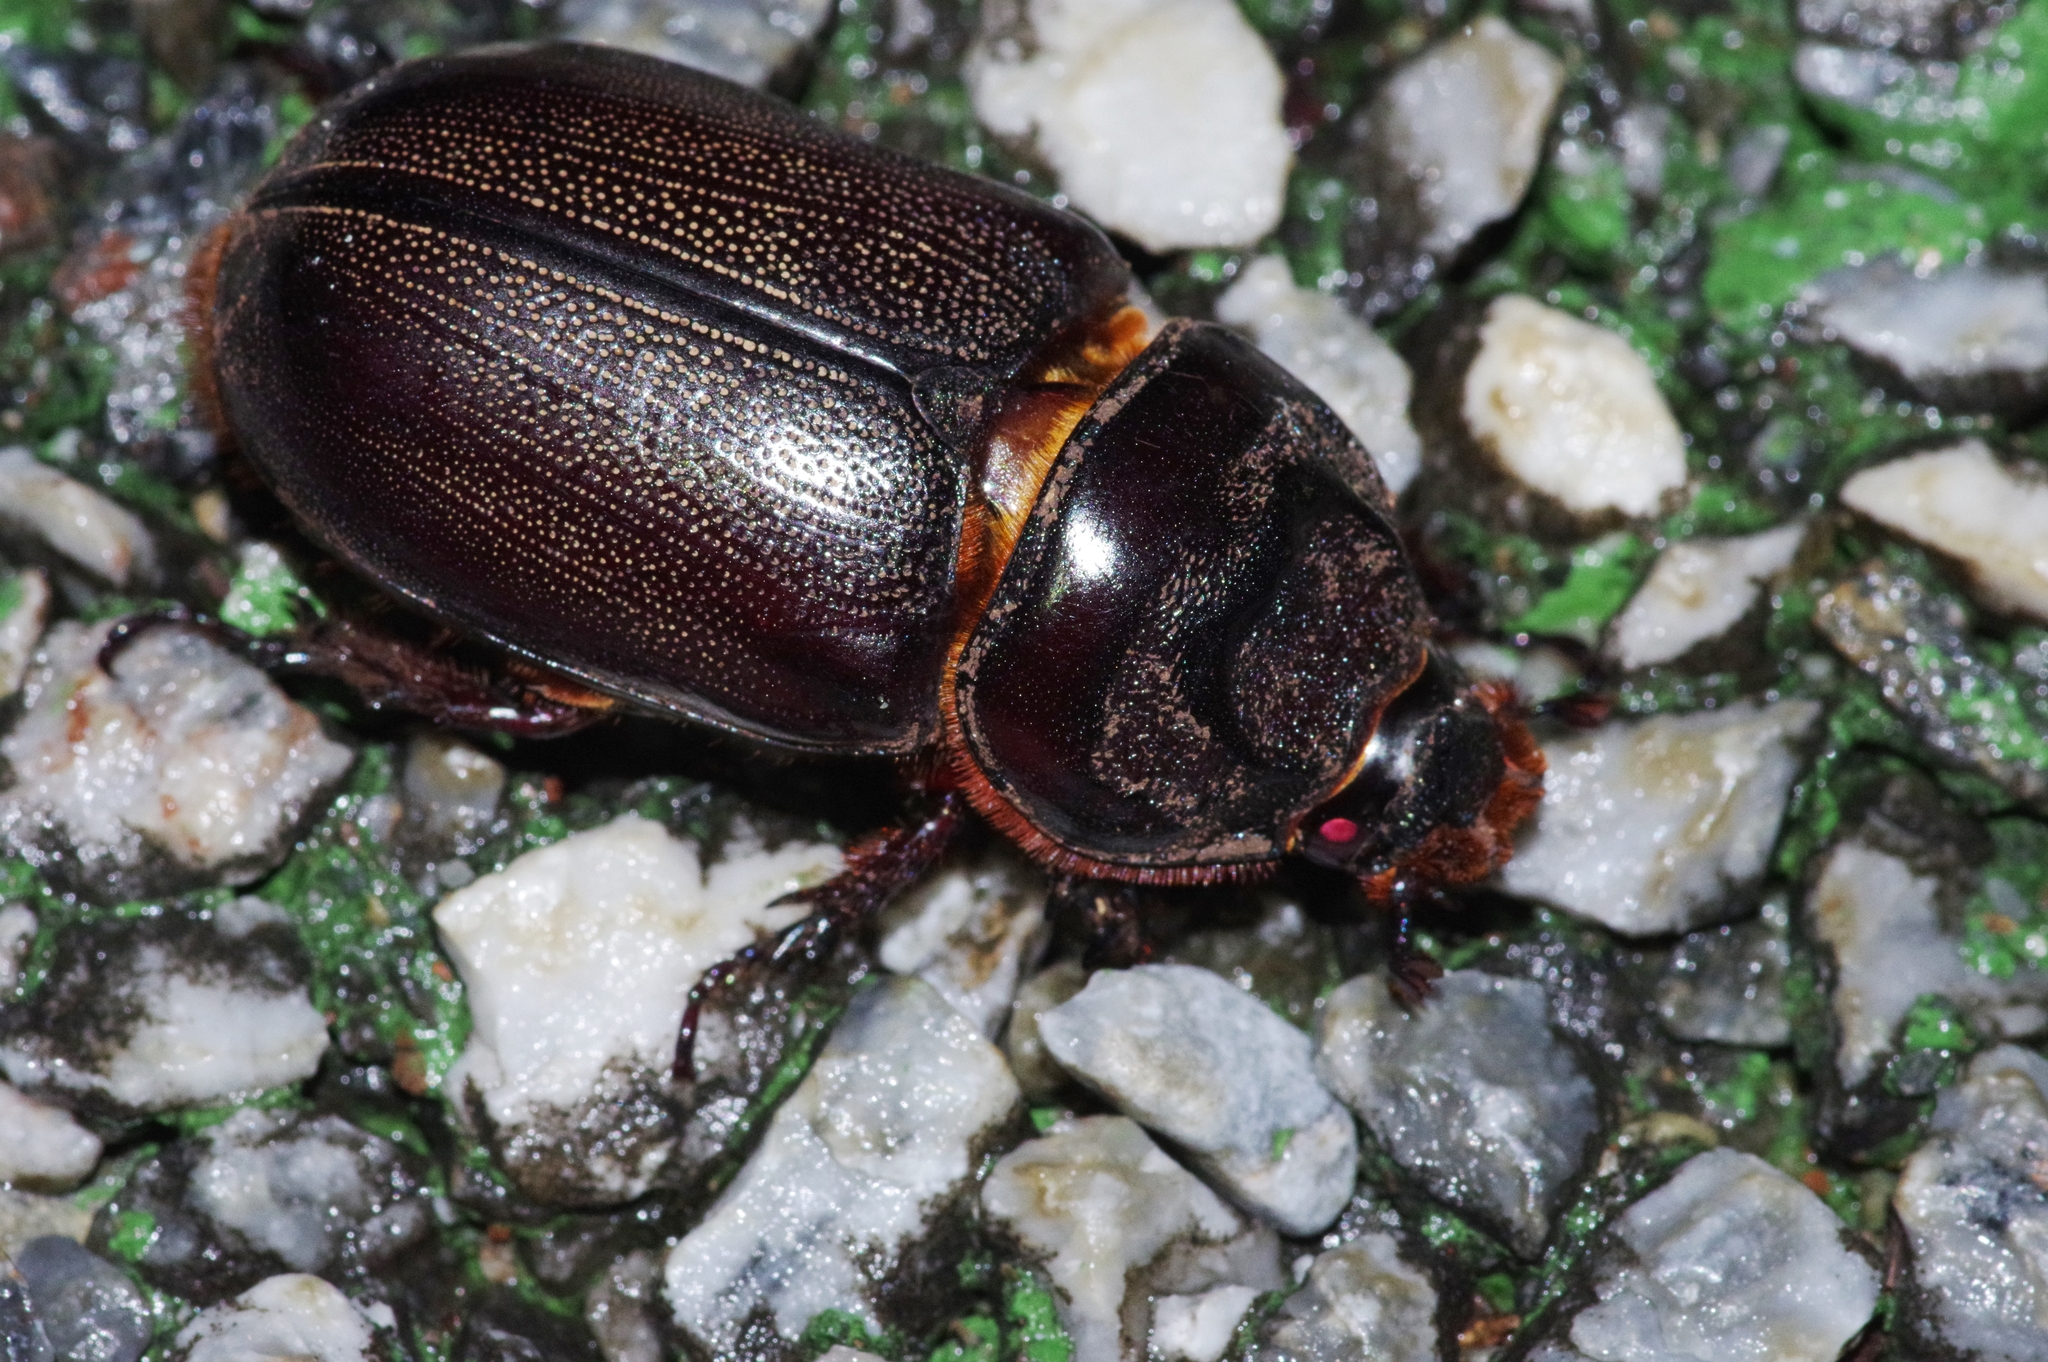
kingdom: Animalia
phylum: Arthropoda
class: Insecta
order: Coleoptera
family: Scarabaeidae
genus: Oryctes
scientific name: Oryctes rhinoceros
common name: Coconut rhinoceros beetle
